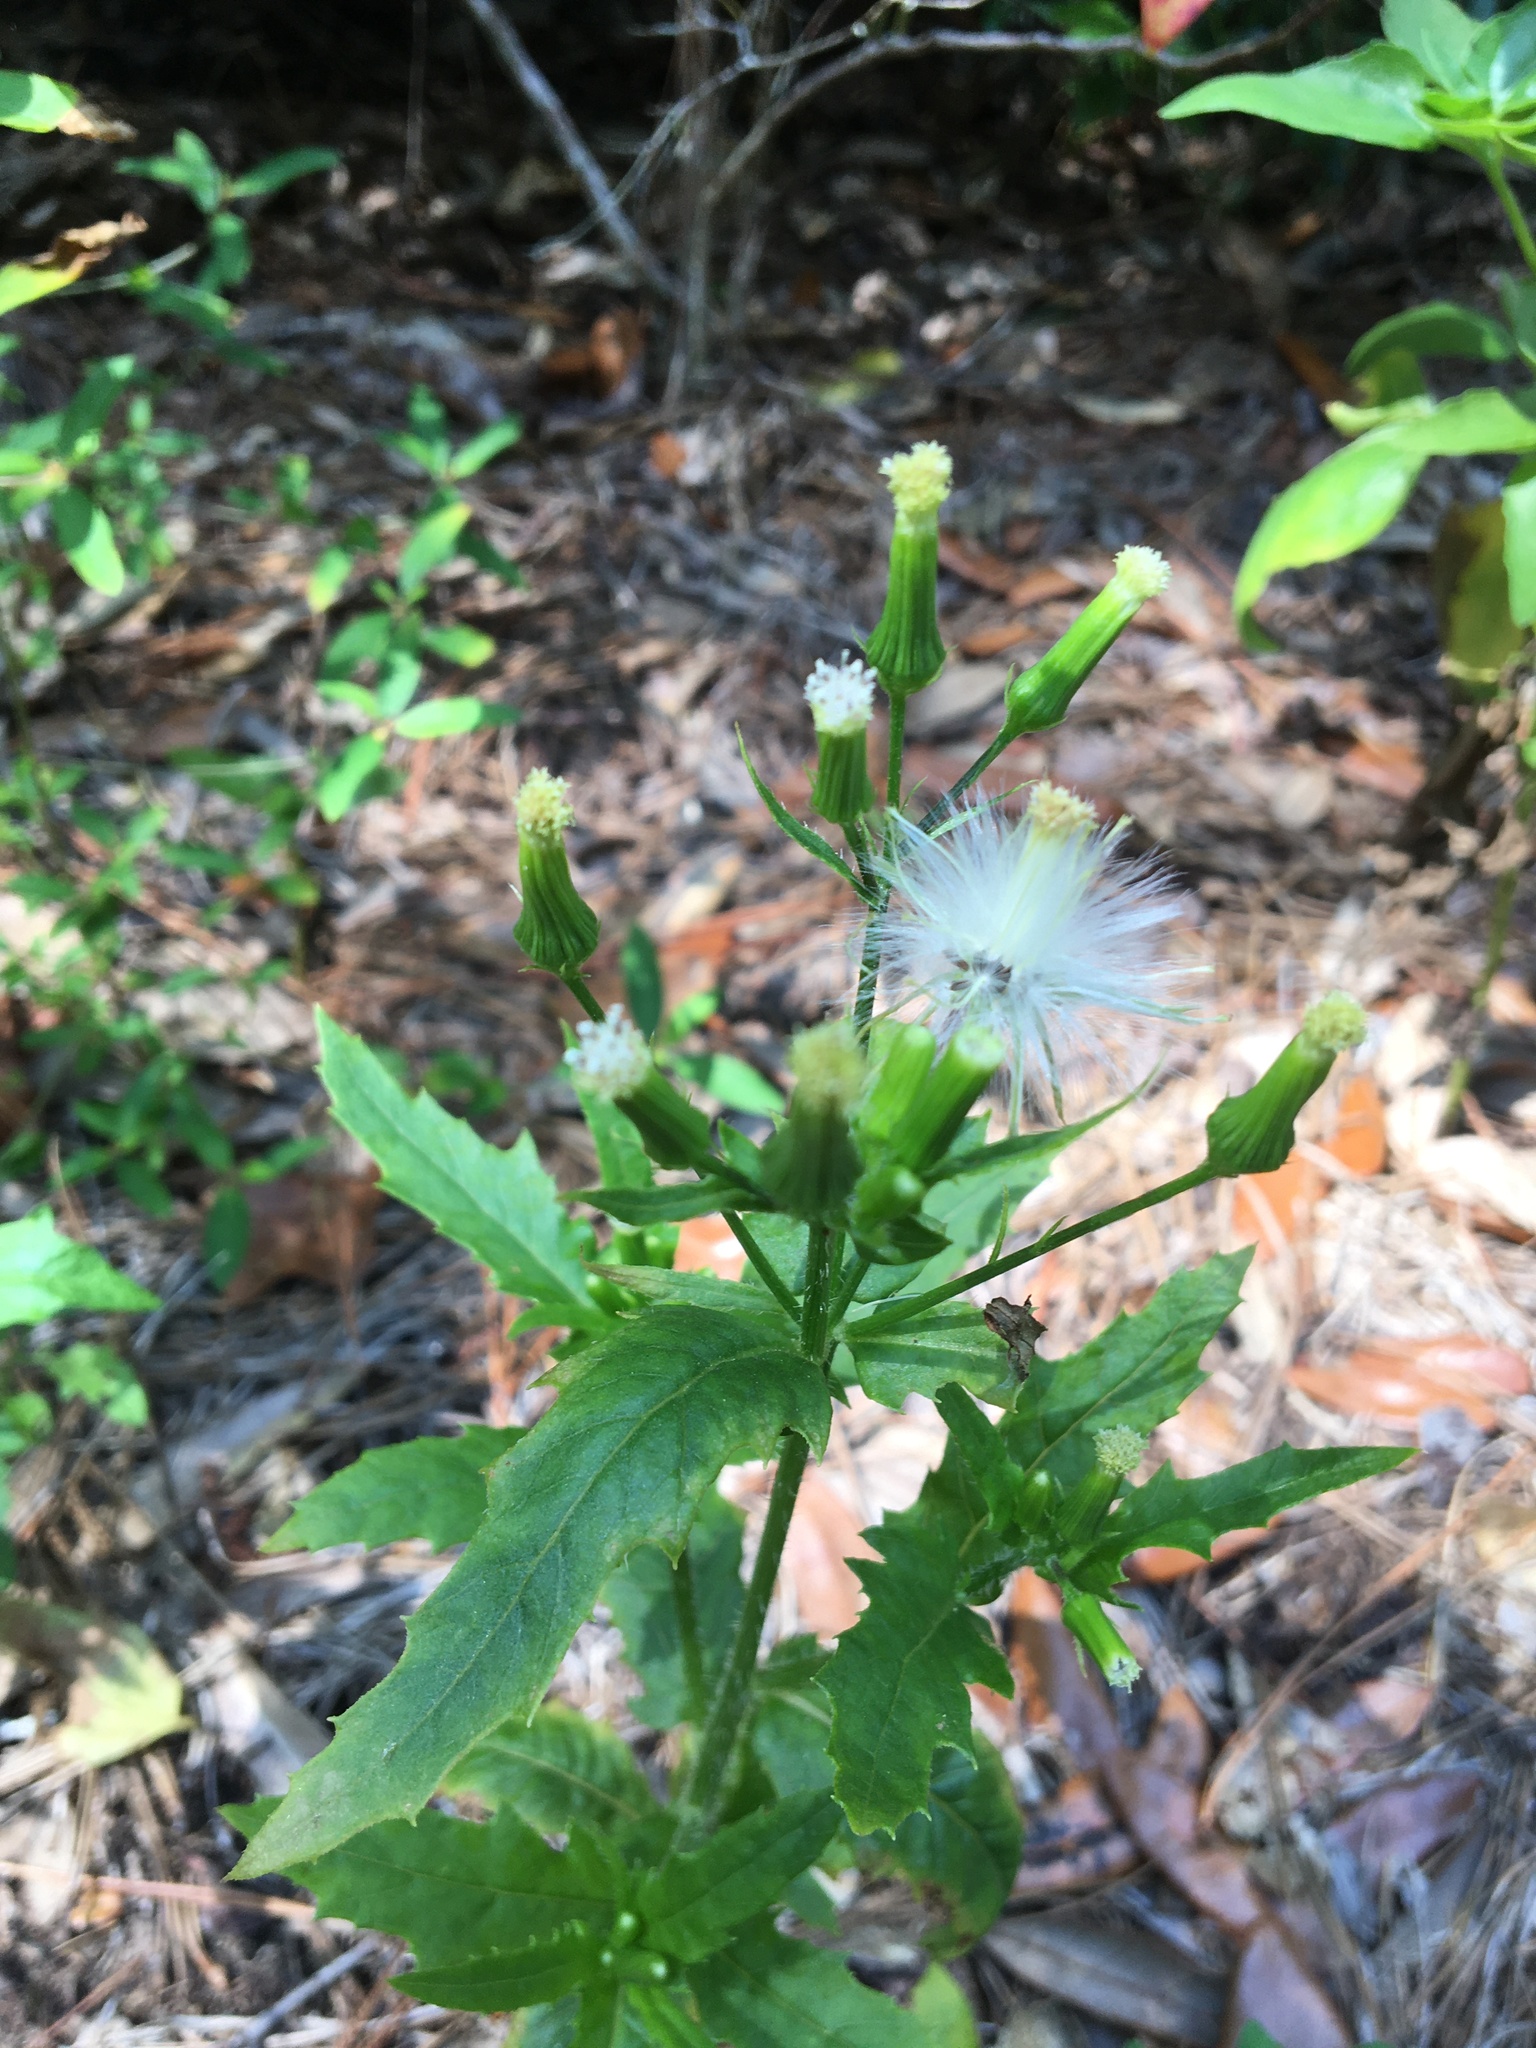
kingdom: Plantae
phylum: Tracheophyta
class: Magnoliopsida
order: Asterales
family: Asteraceae
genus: Erechtites
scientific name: Erechtites hieraciifolius
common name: American burnweed
